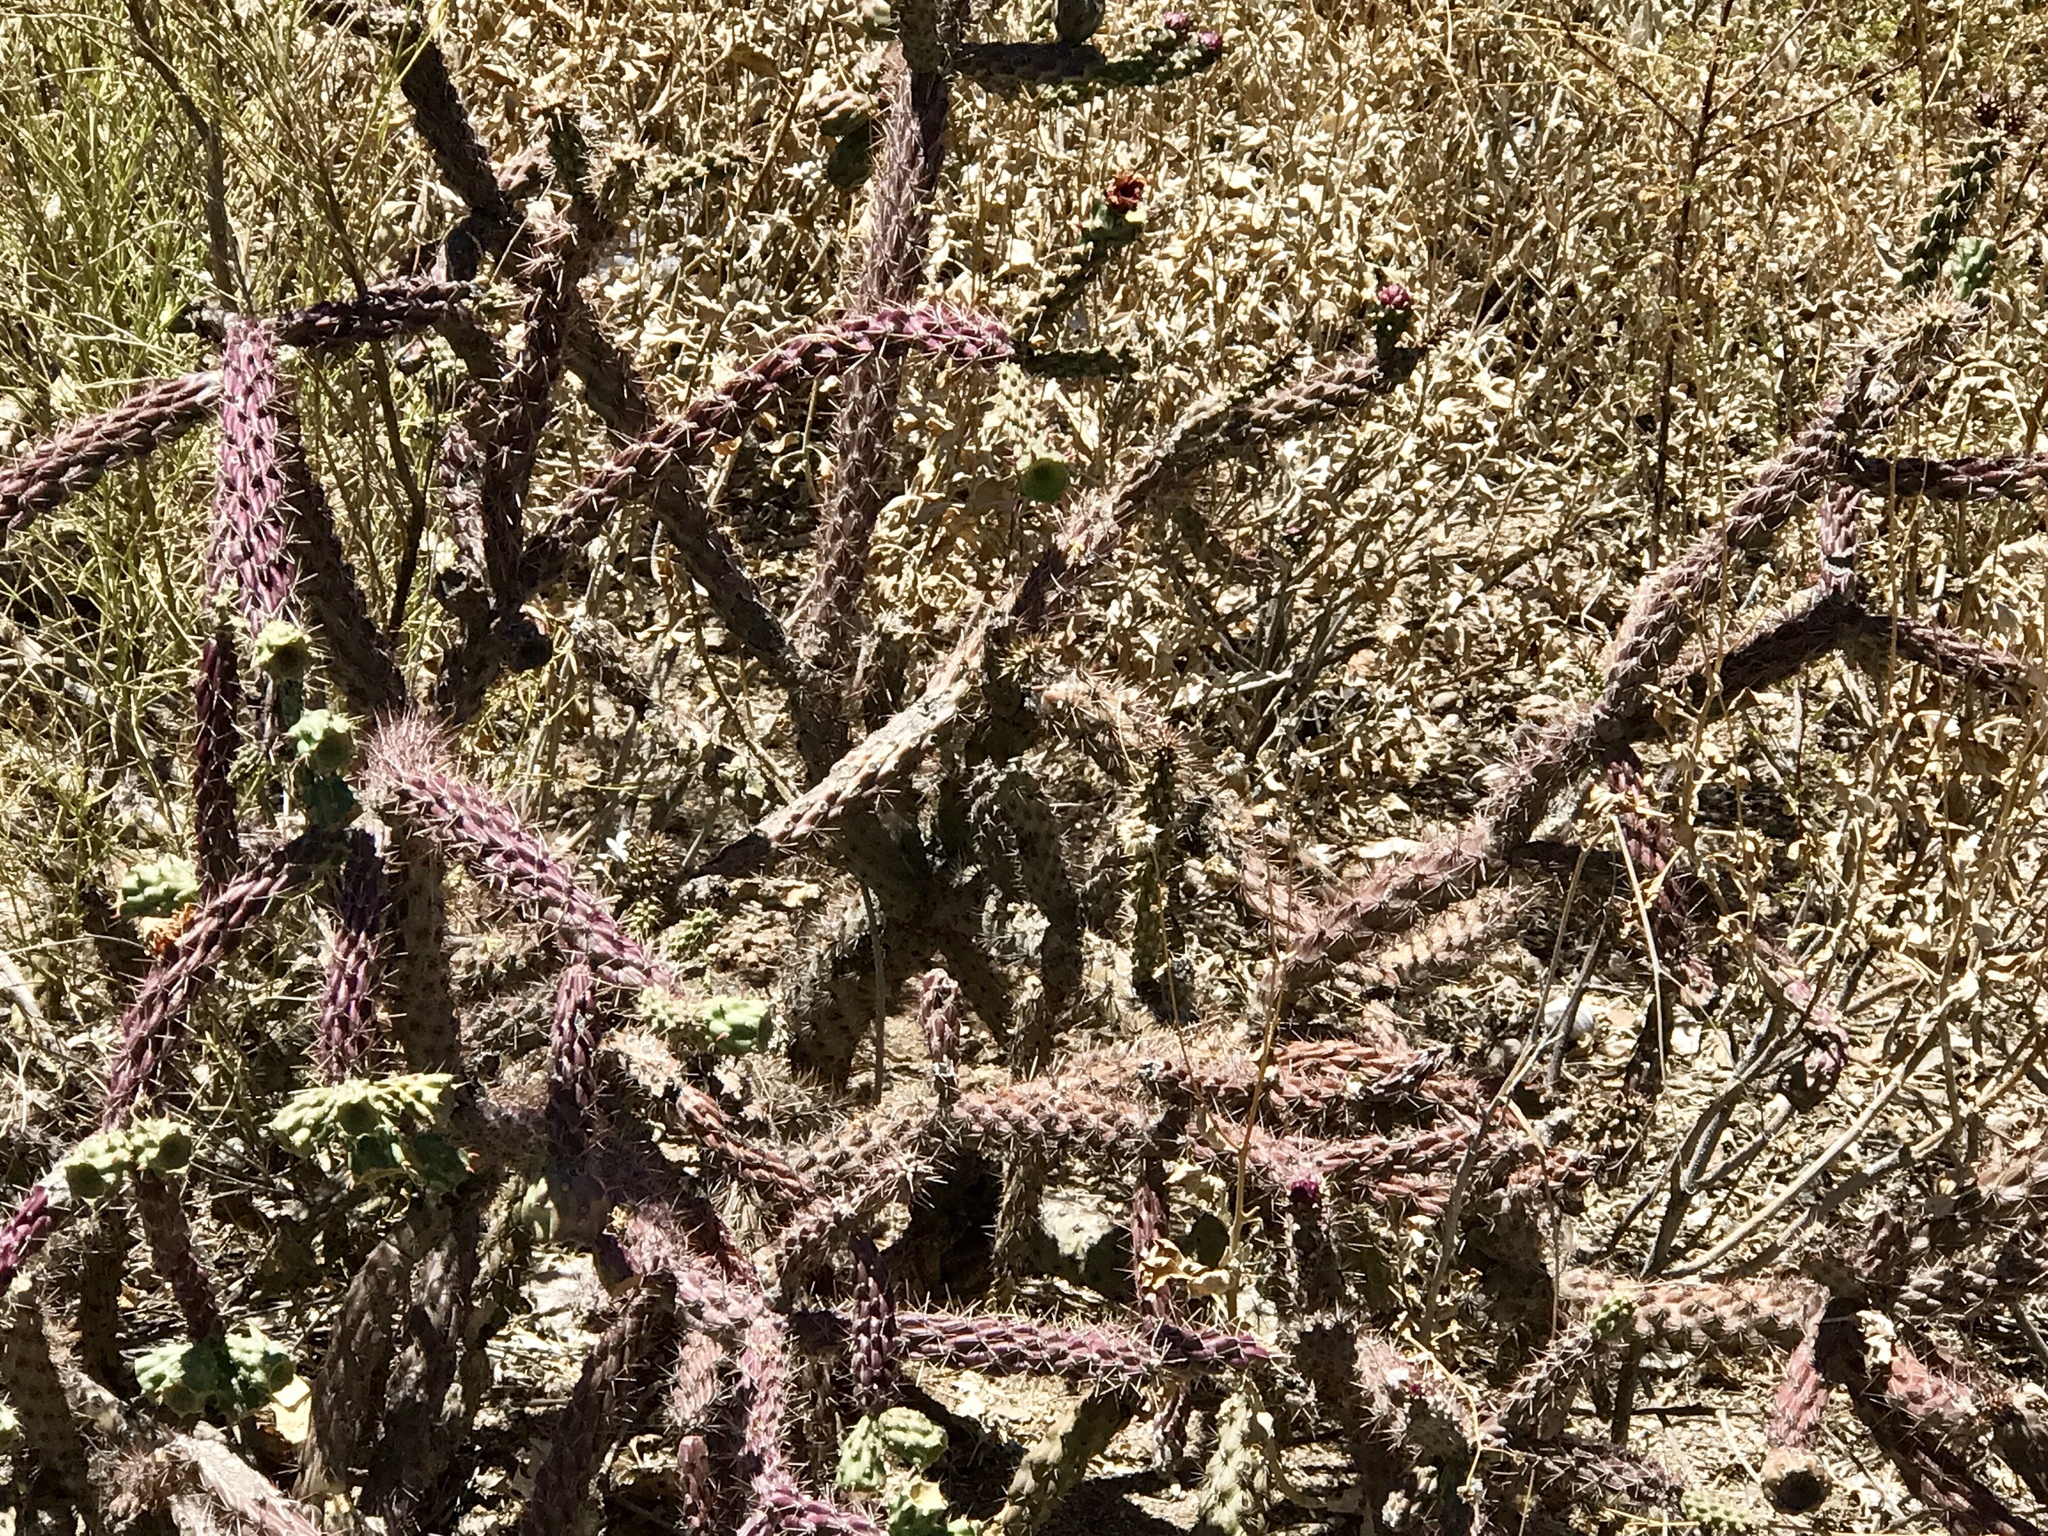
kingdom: Plantae
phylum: Tracheophyta
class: Magnoliopsida
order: Caryophyllales
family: Cactaceae
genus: Cylindropuntia
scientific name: Cylindropuntia thurberi
